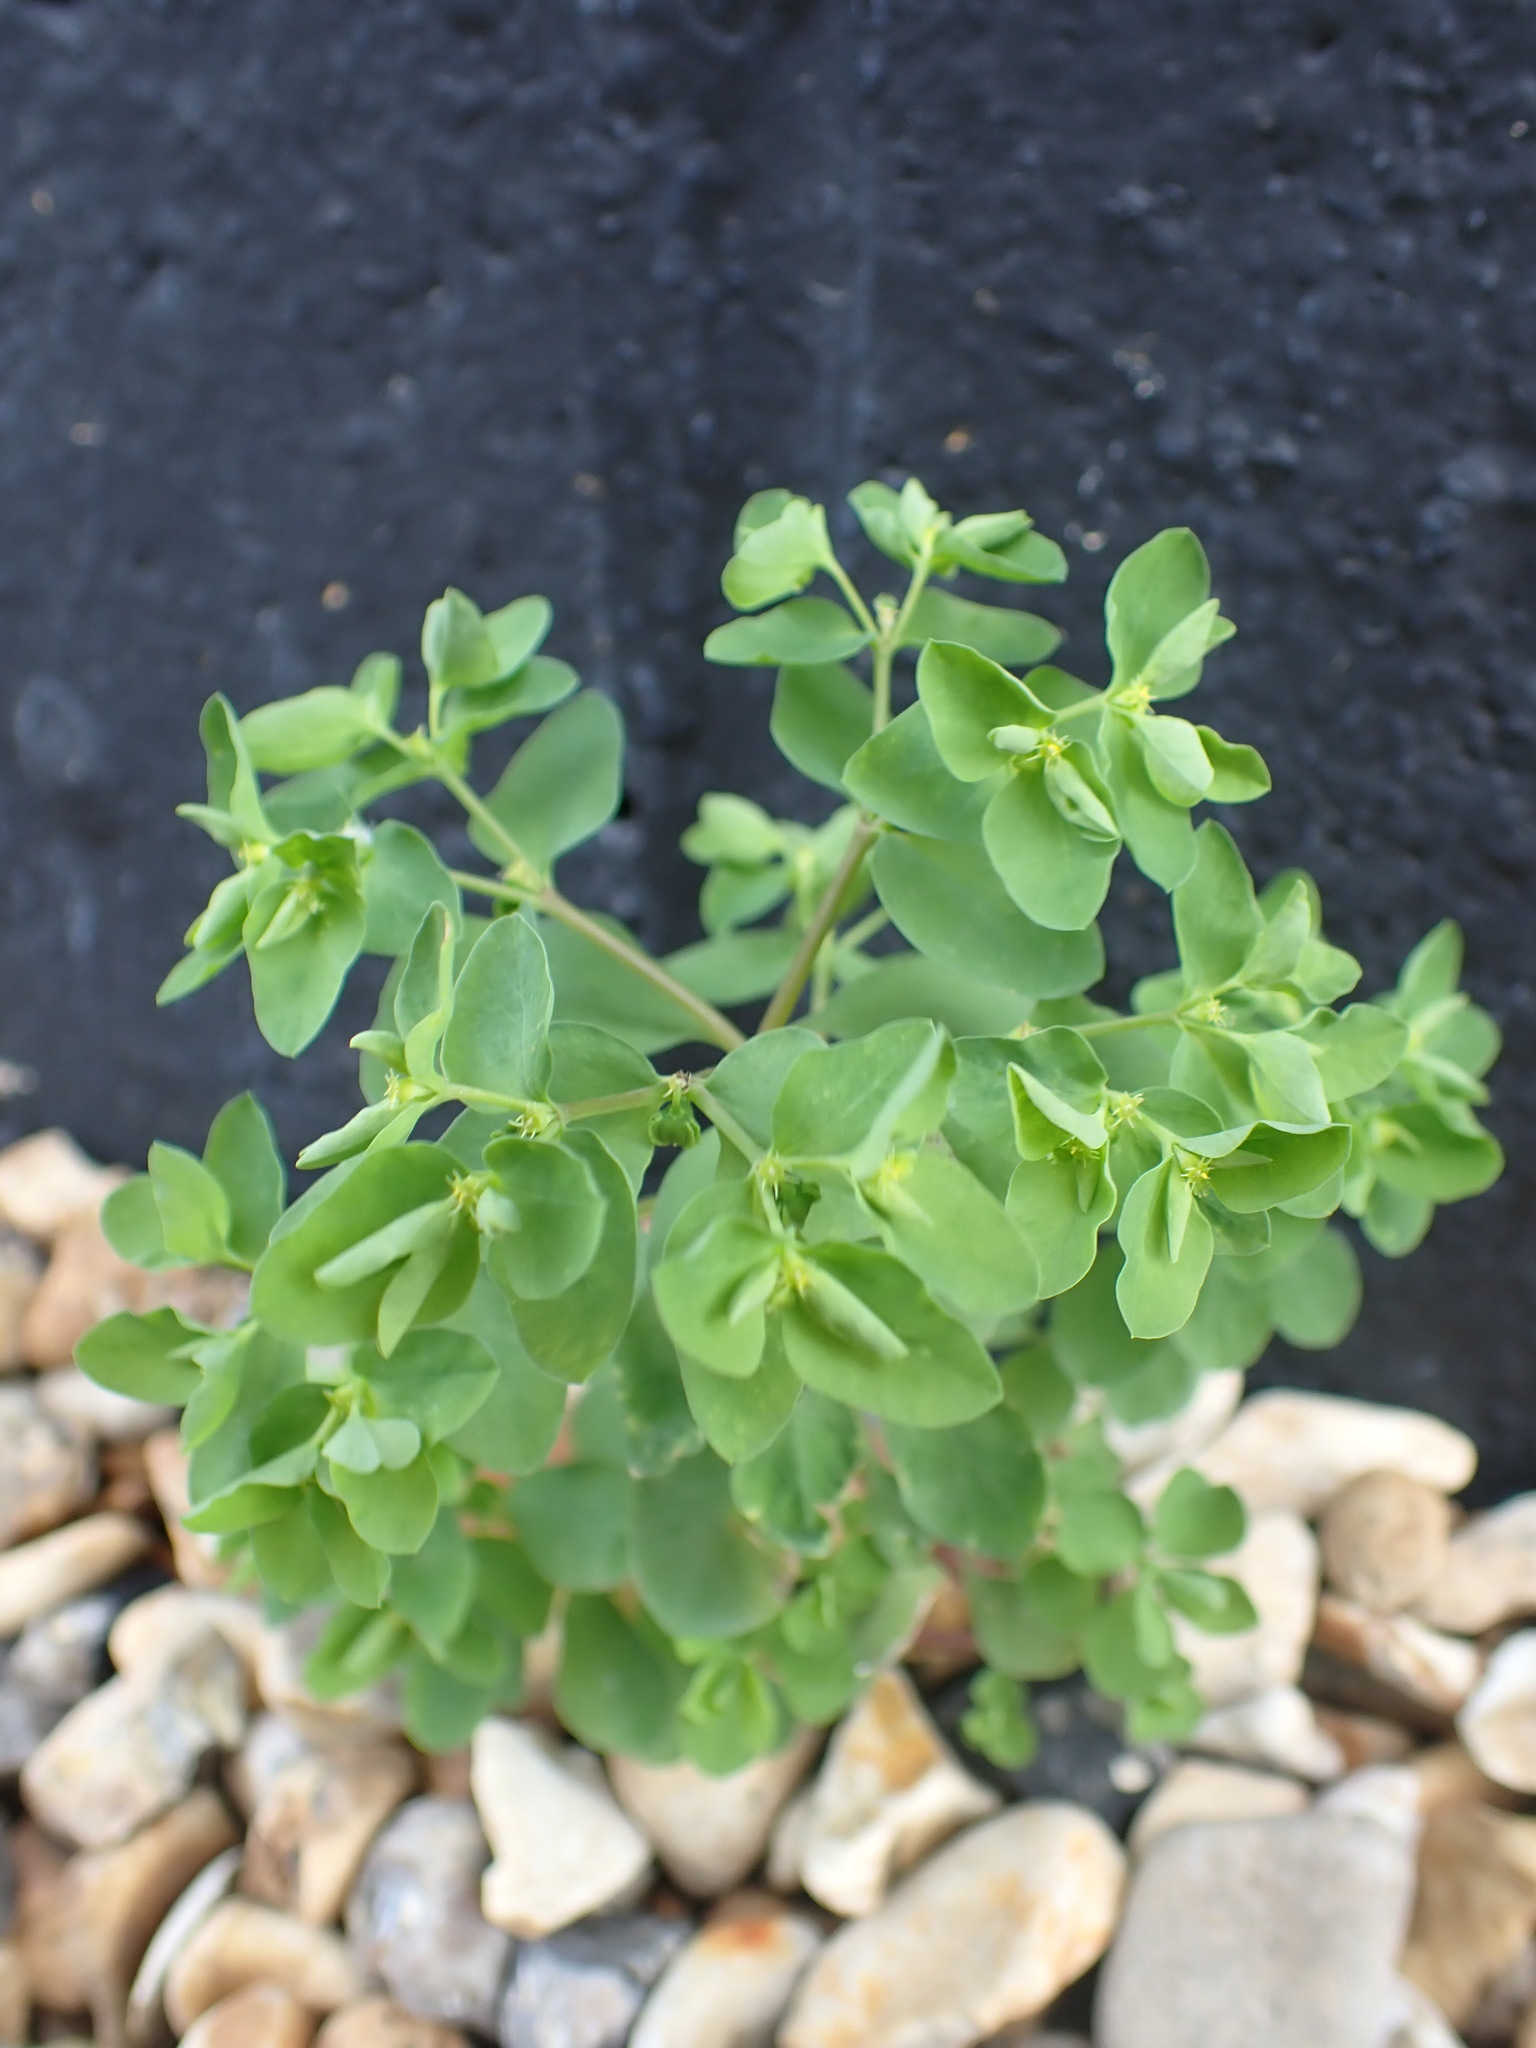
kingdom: Plantae
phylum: Tracheophyta
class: Magnoliopsida
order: Malpighiales
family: Euphorbiaceae
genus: Euphorbia
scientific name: Euphorbia peplus
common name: Petty spurge
